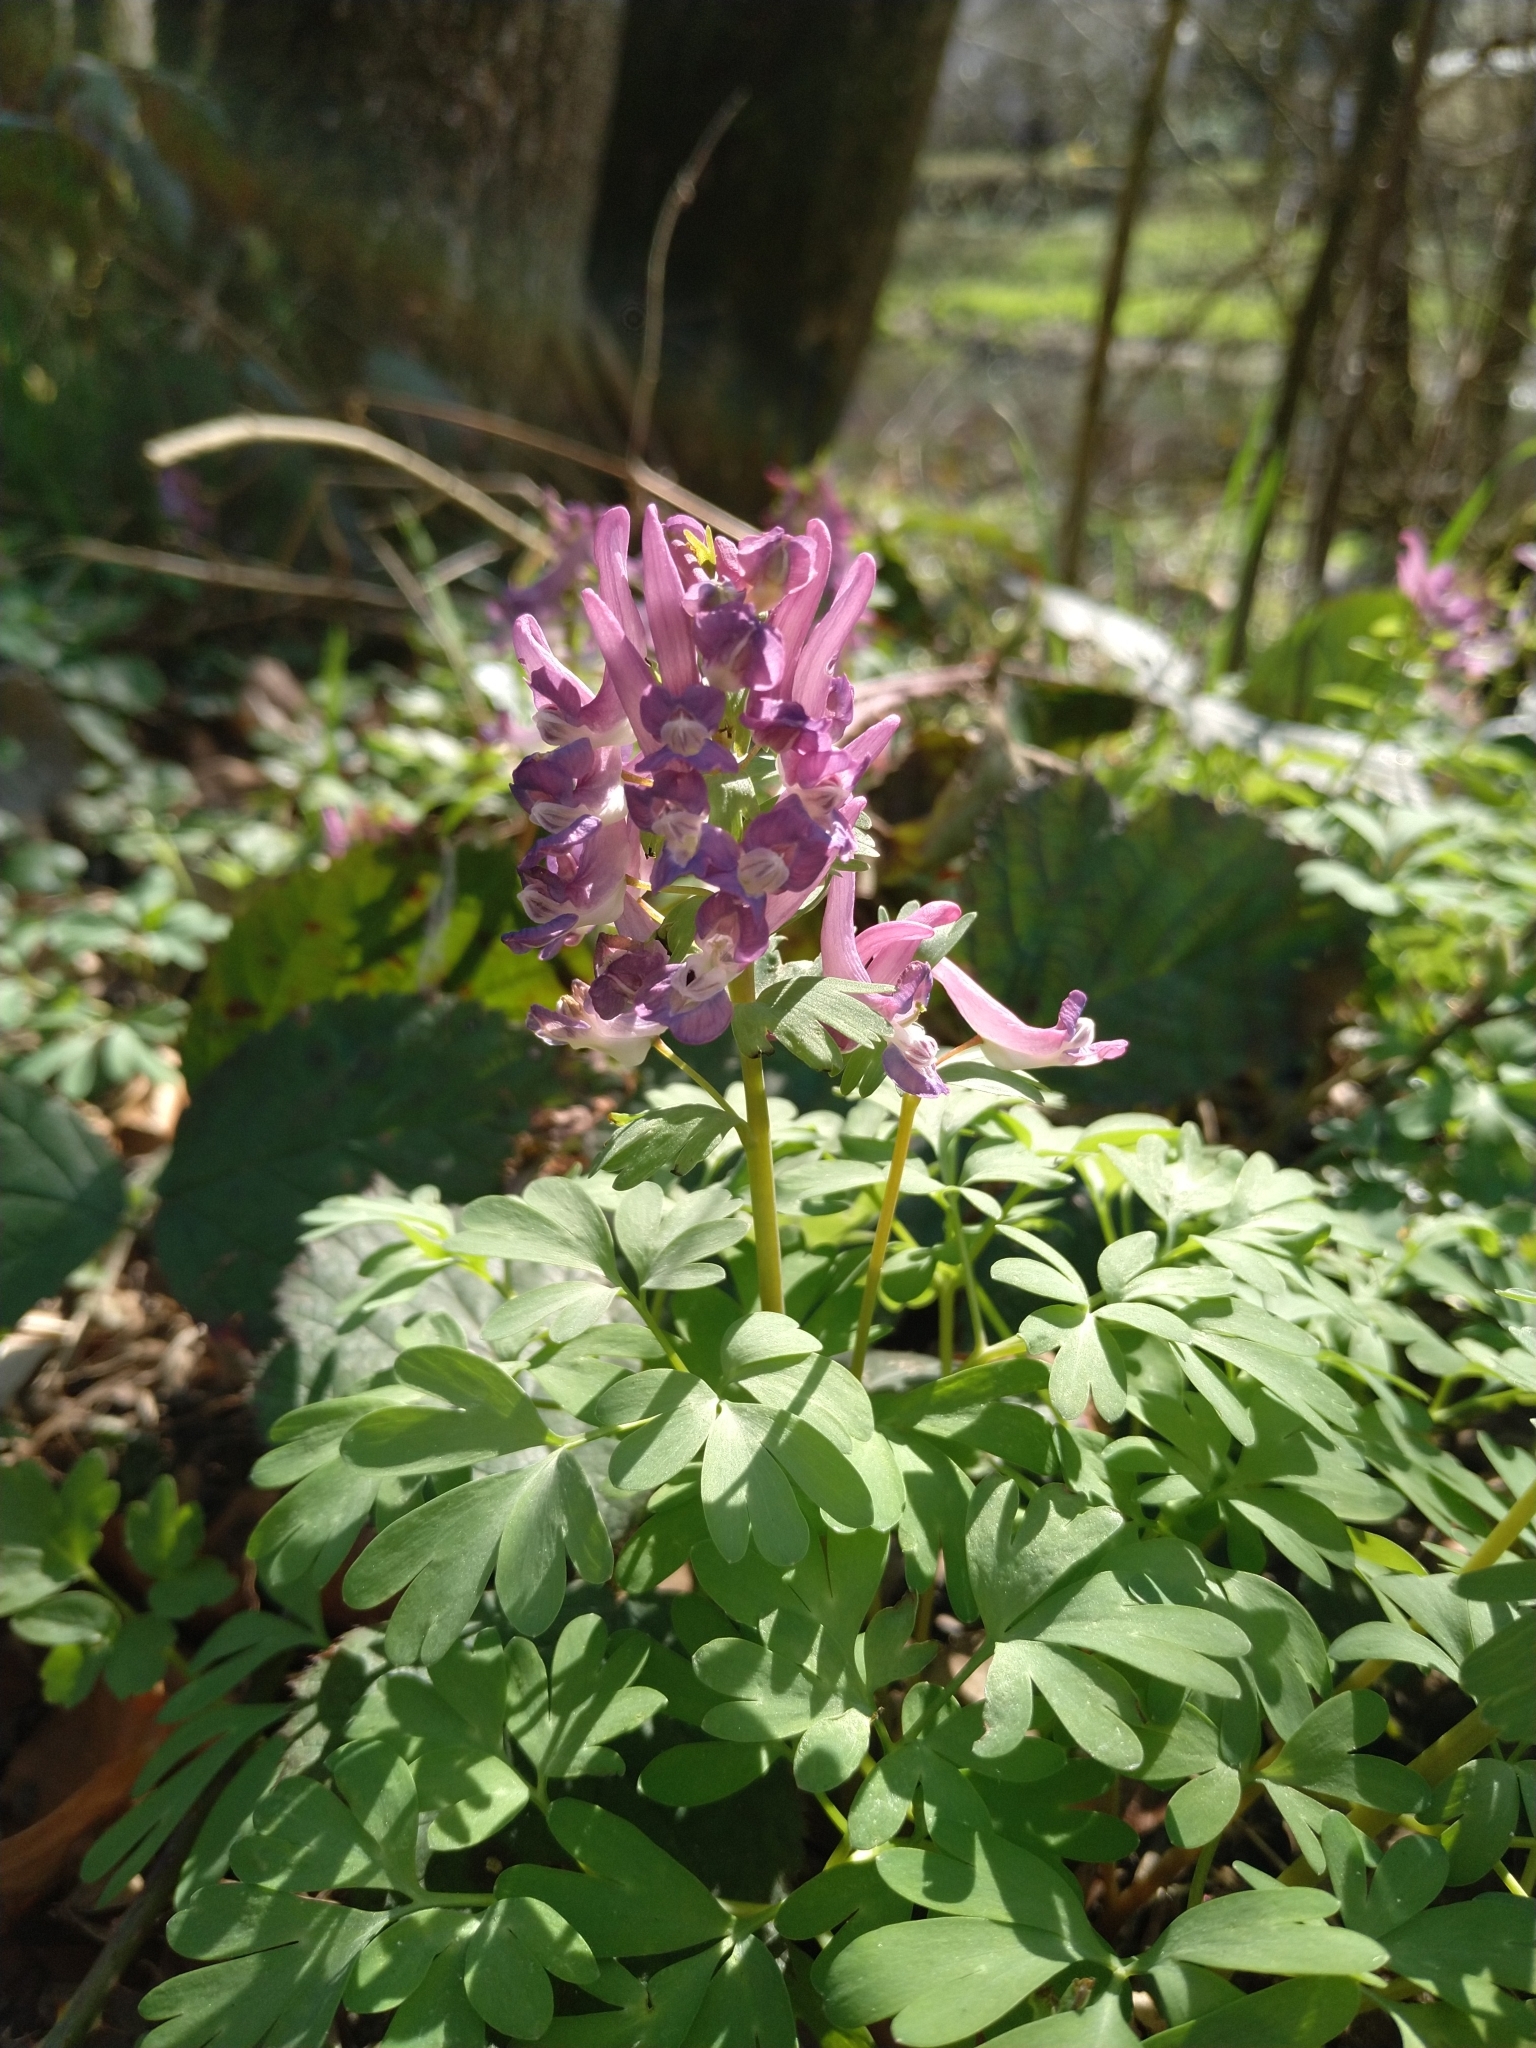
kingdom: Plantae
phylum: Tracheophyta
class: Magnoliopsida
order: Ranunculales
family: Papaveraceae
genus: Corydalis
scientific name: Corydalis solida
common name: Bird-in-a-bush
